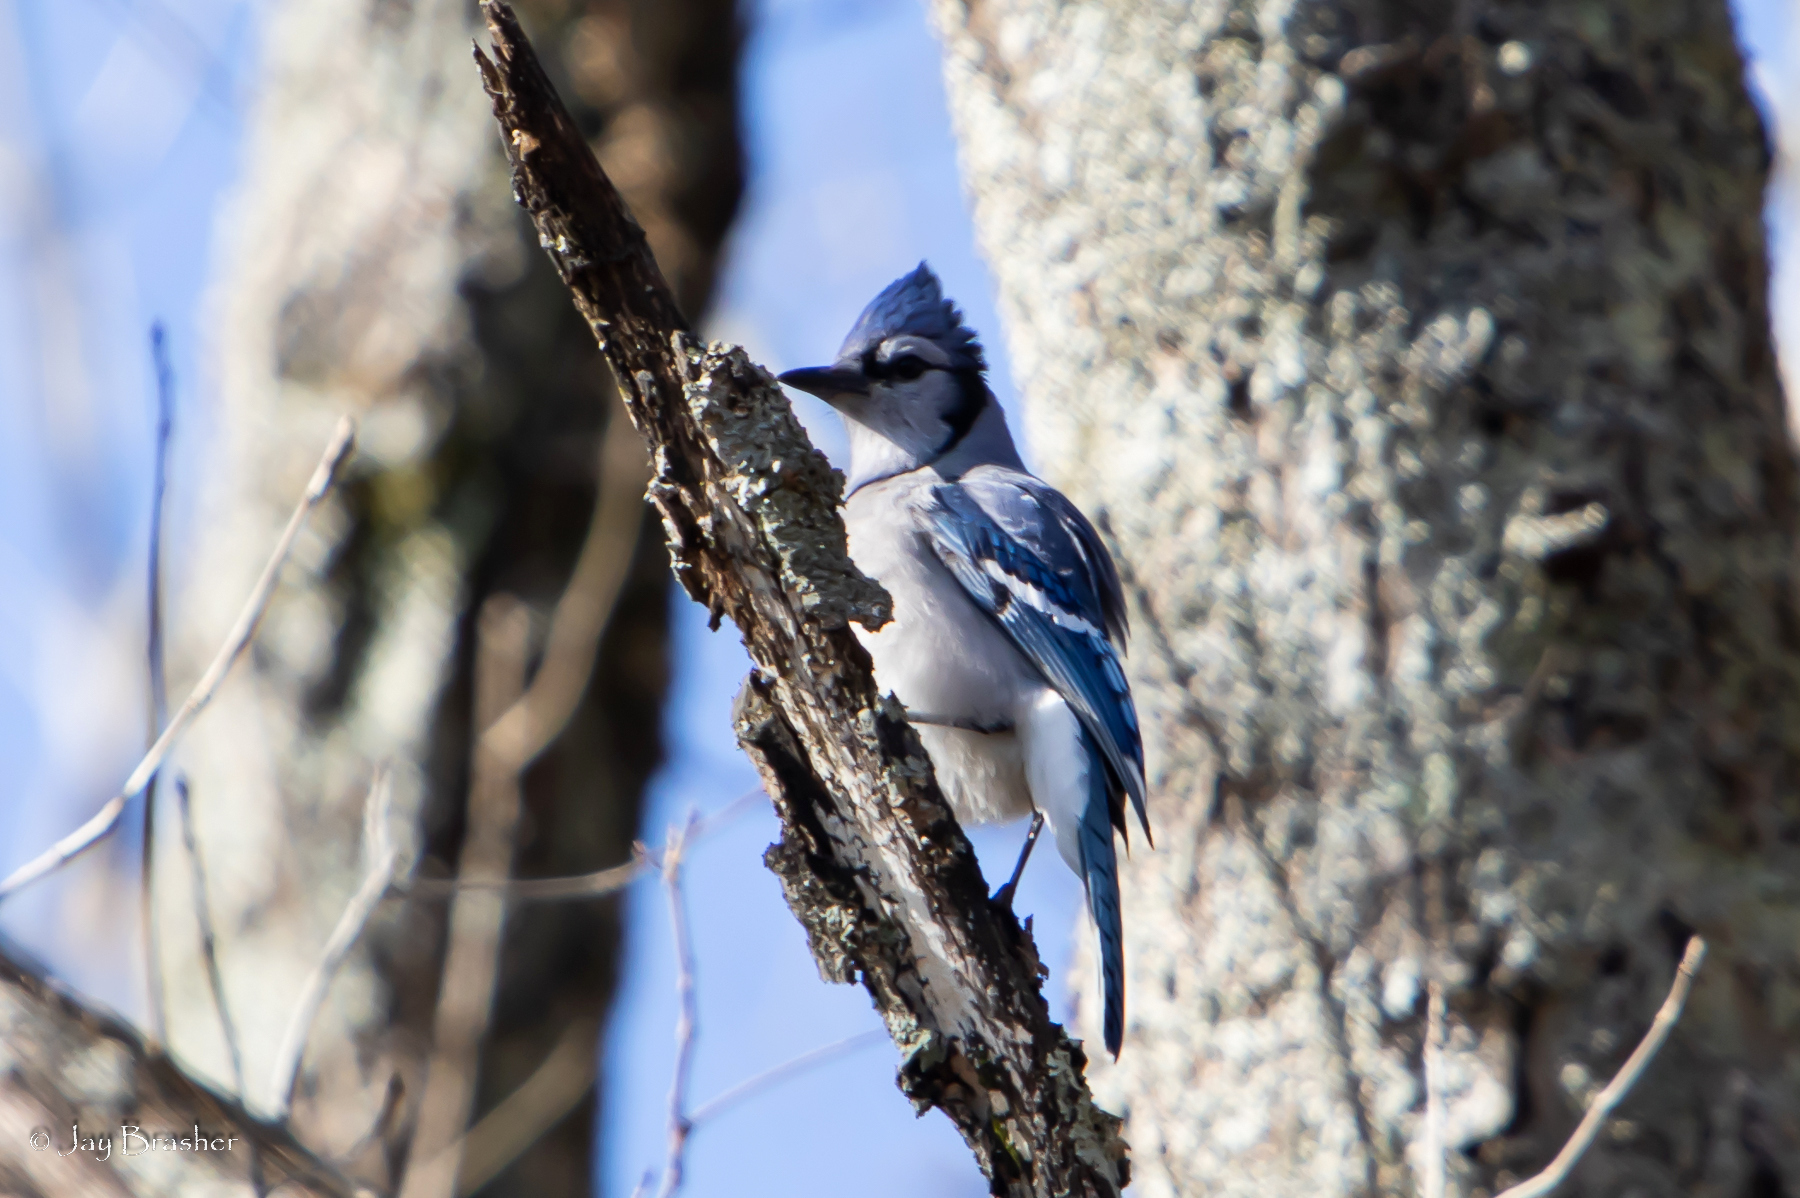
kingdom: Animalia
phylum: Chordata
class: Aves
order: Passeriformes
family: Corvidae
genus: Cyanocitta
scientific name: Cyanocitta cristata
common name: Blue jay
